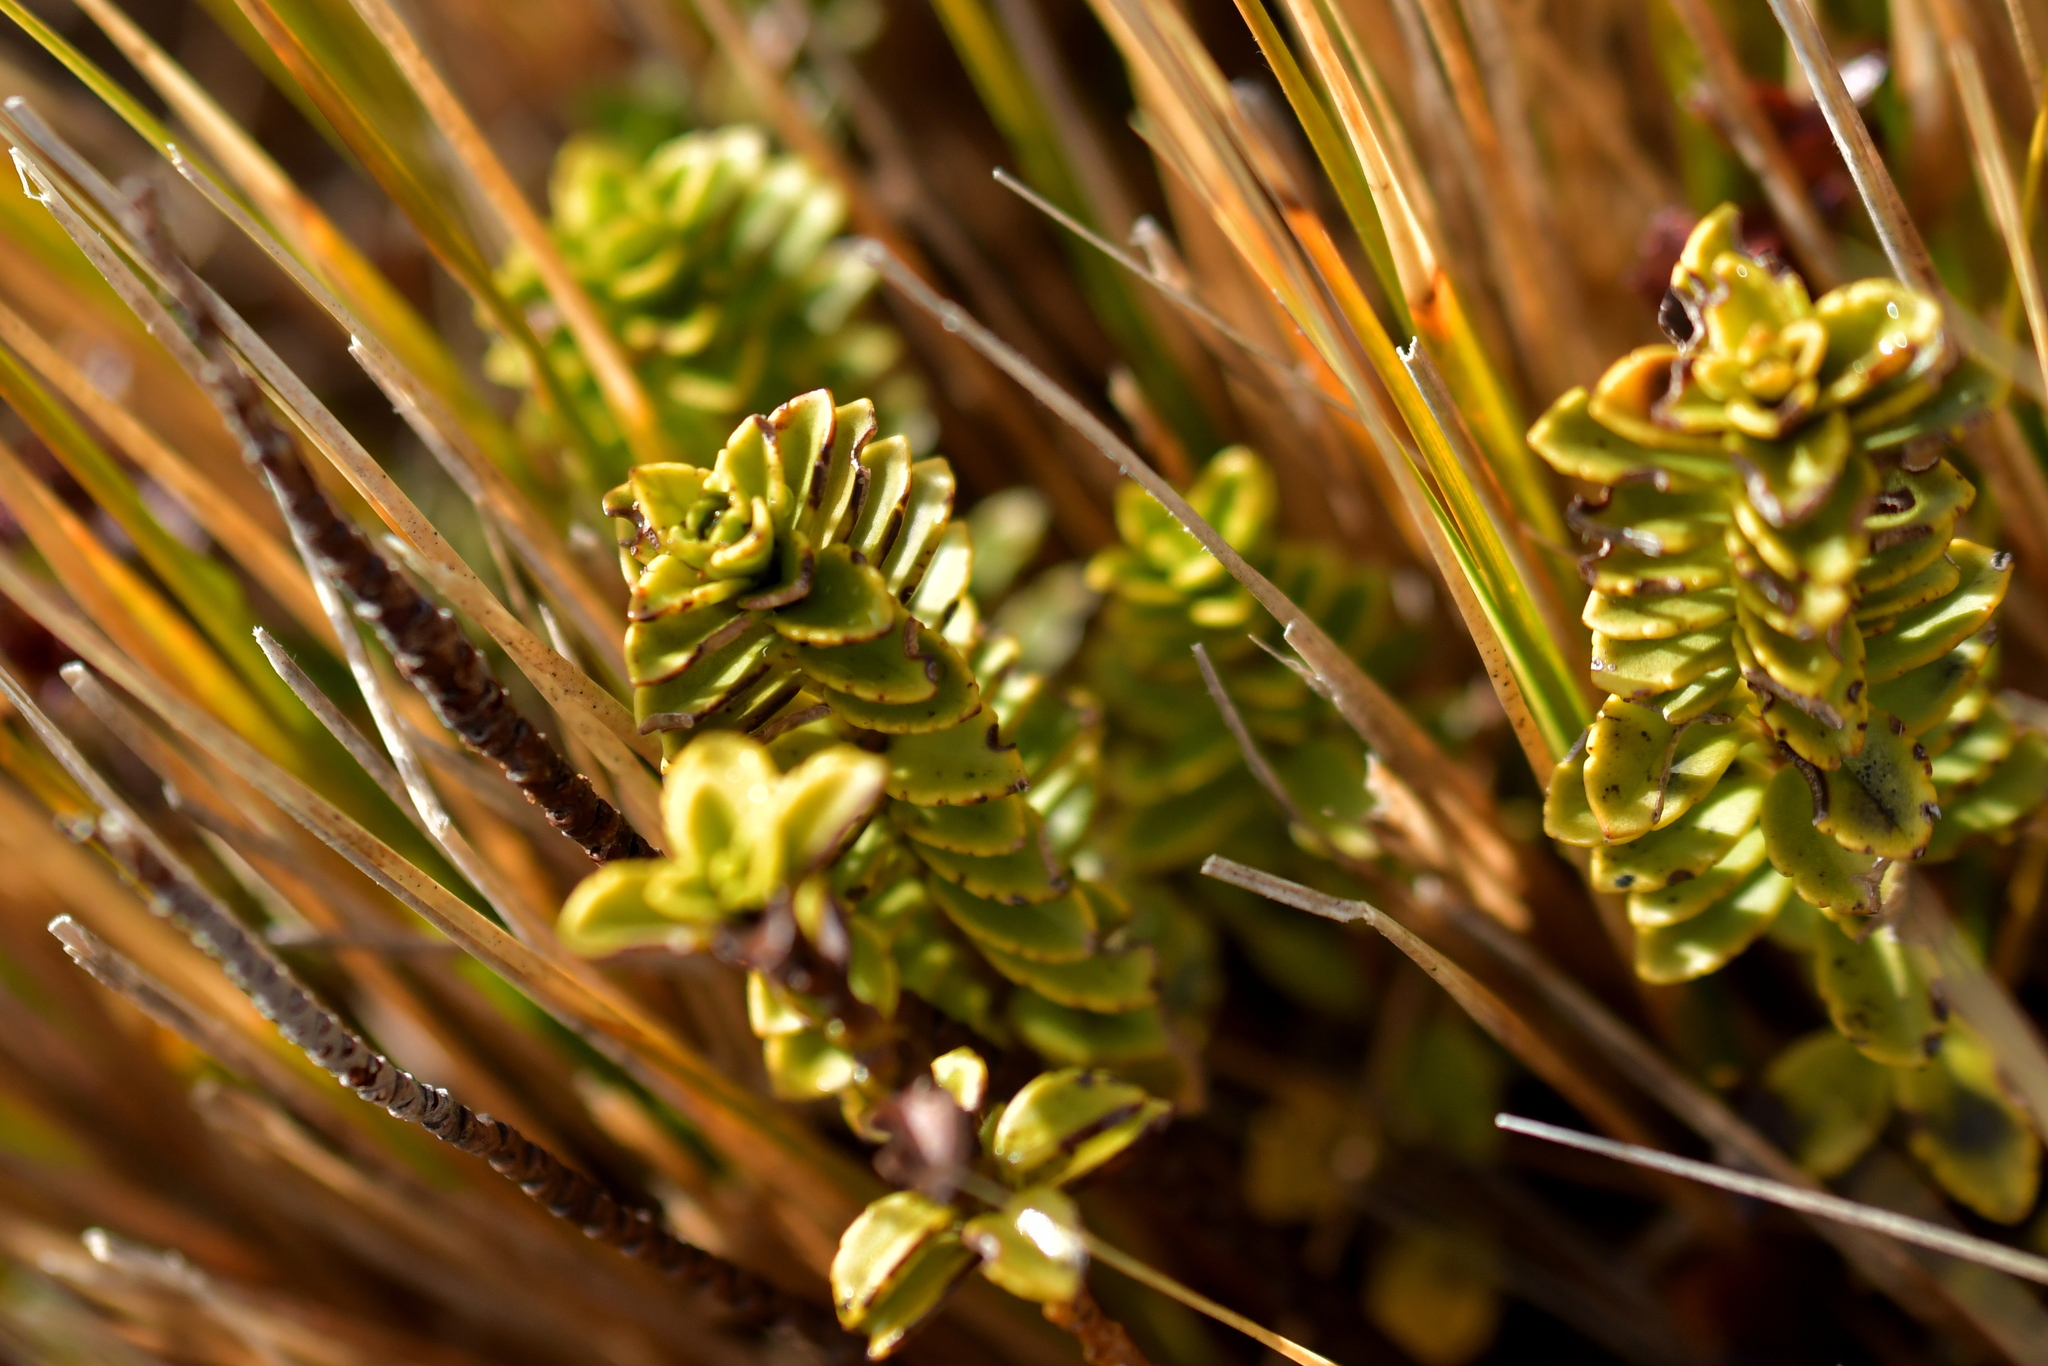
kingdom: Plantae
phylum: Tracheophyta
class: Magnoliopsida
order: Lamiales
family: Plantaginaceae
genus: Veronica
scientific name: Veronica macrantha
